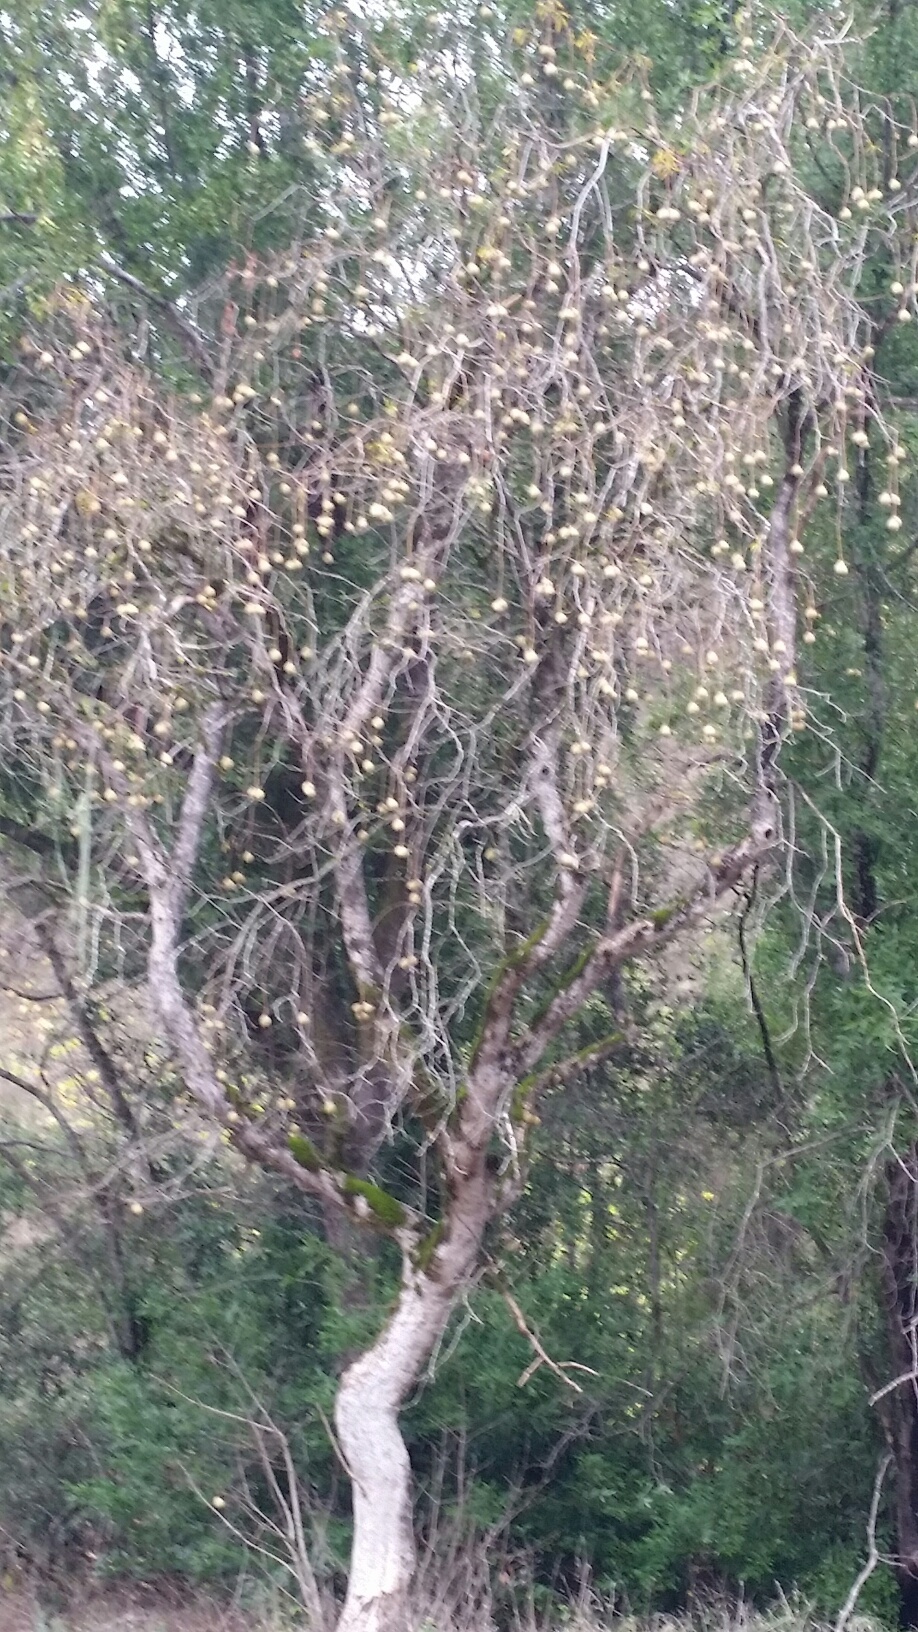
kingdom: Plantae
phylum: Tracheophyta
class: Magnoliopsida
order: Sapindales
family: Sapindaceae
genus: Aesculus
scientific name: Aesculus californica
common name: California buckeye
